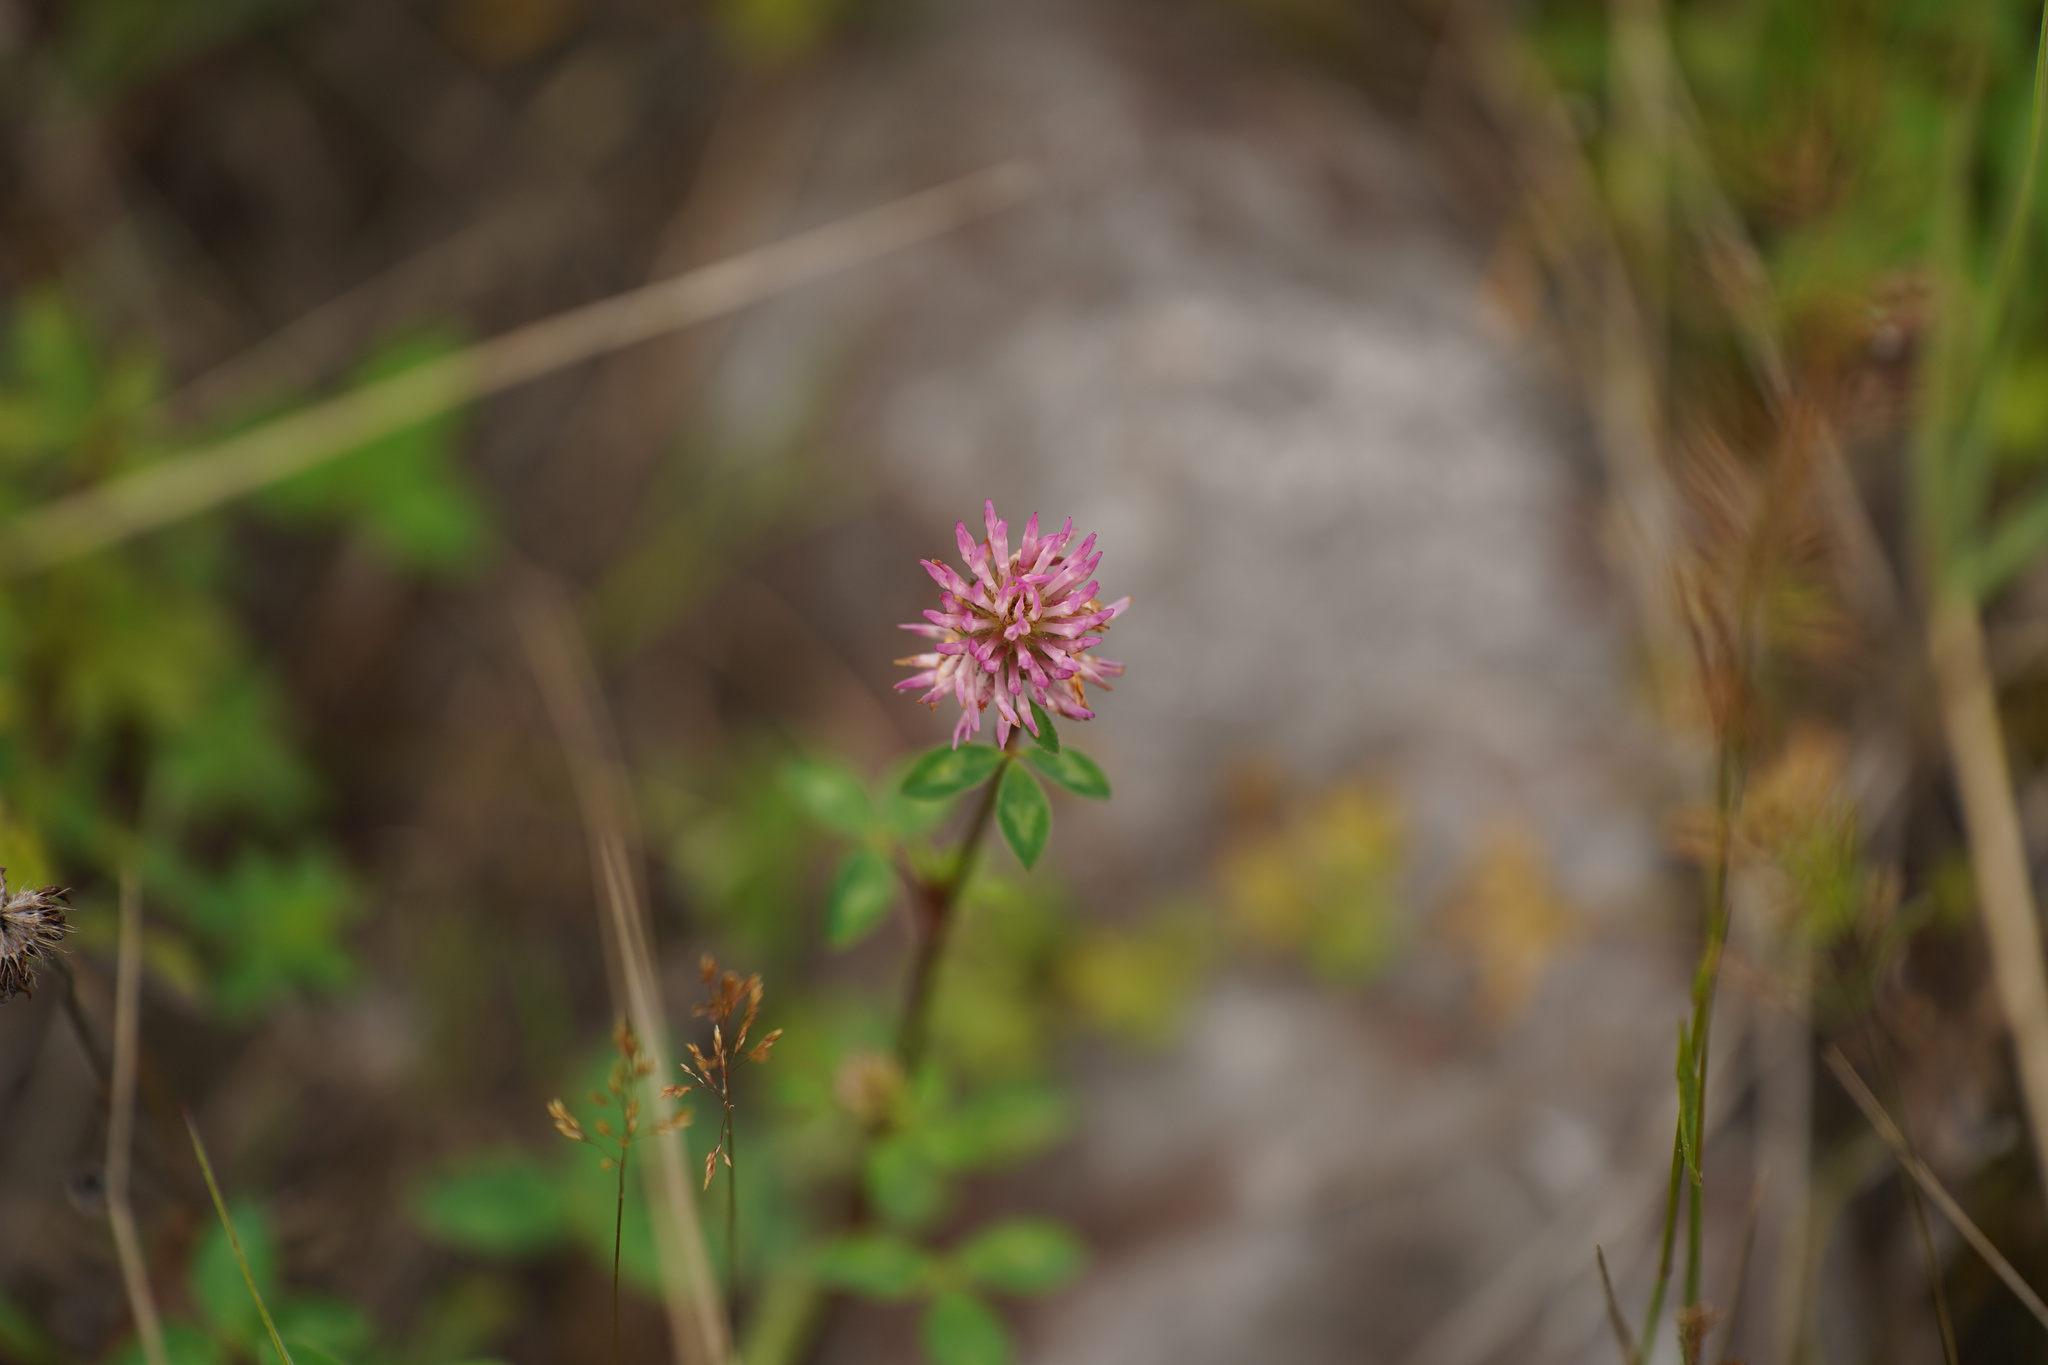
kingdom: Plantae
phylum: Tracheophyta
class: Magnoliopsida
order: Fabales
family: Fabaceae
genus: Trifolium
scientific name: Trifolium pratense
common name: Red clover
